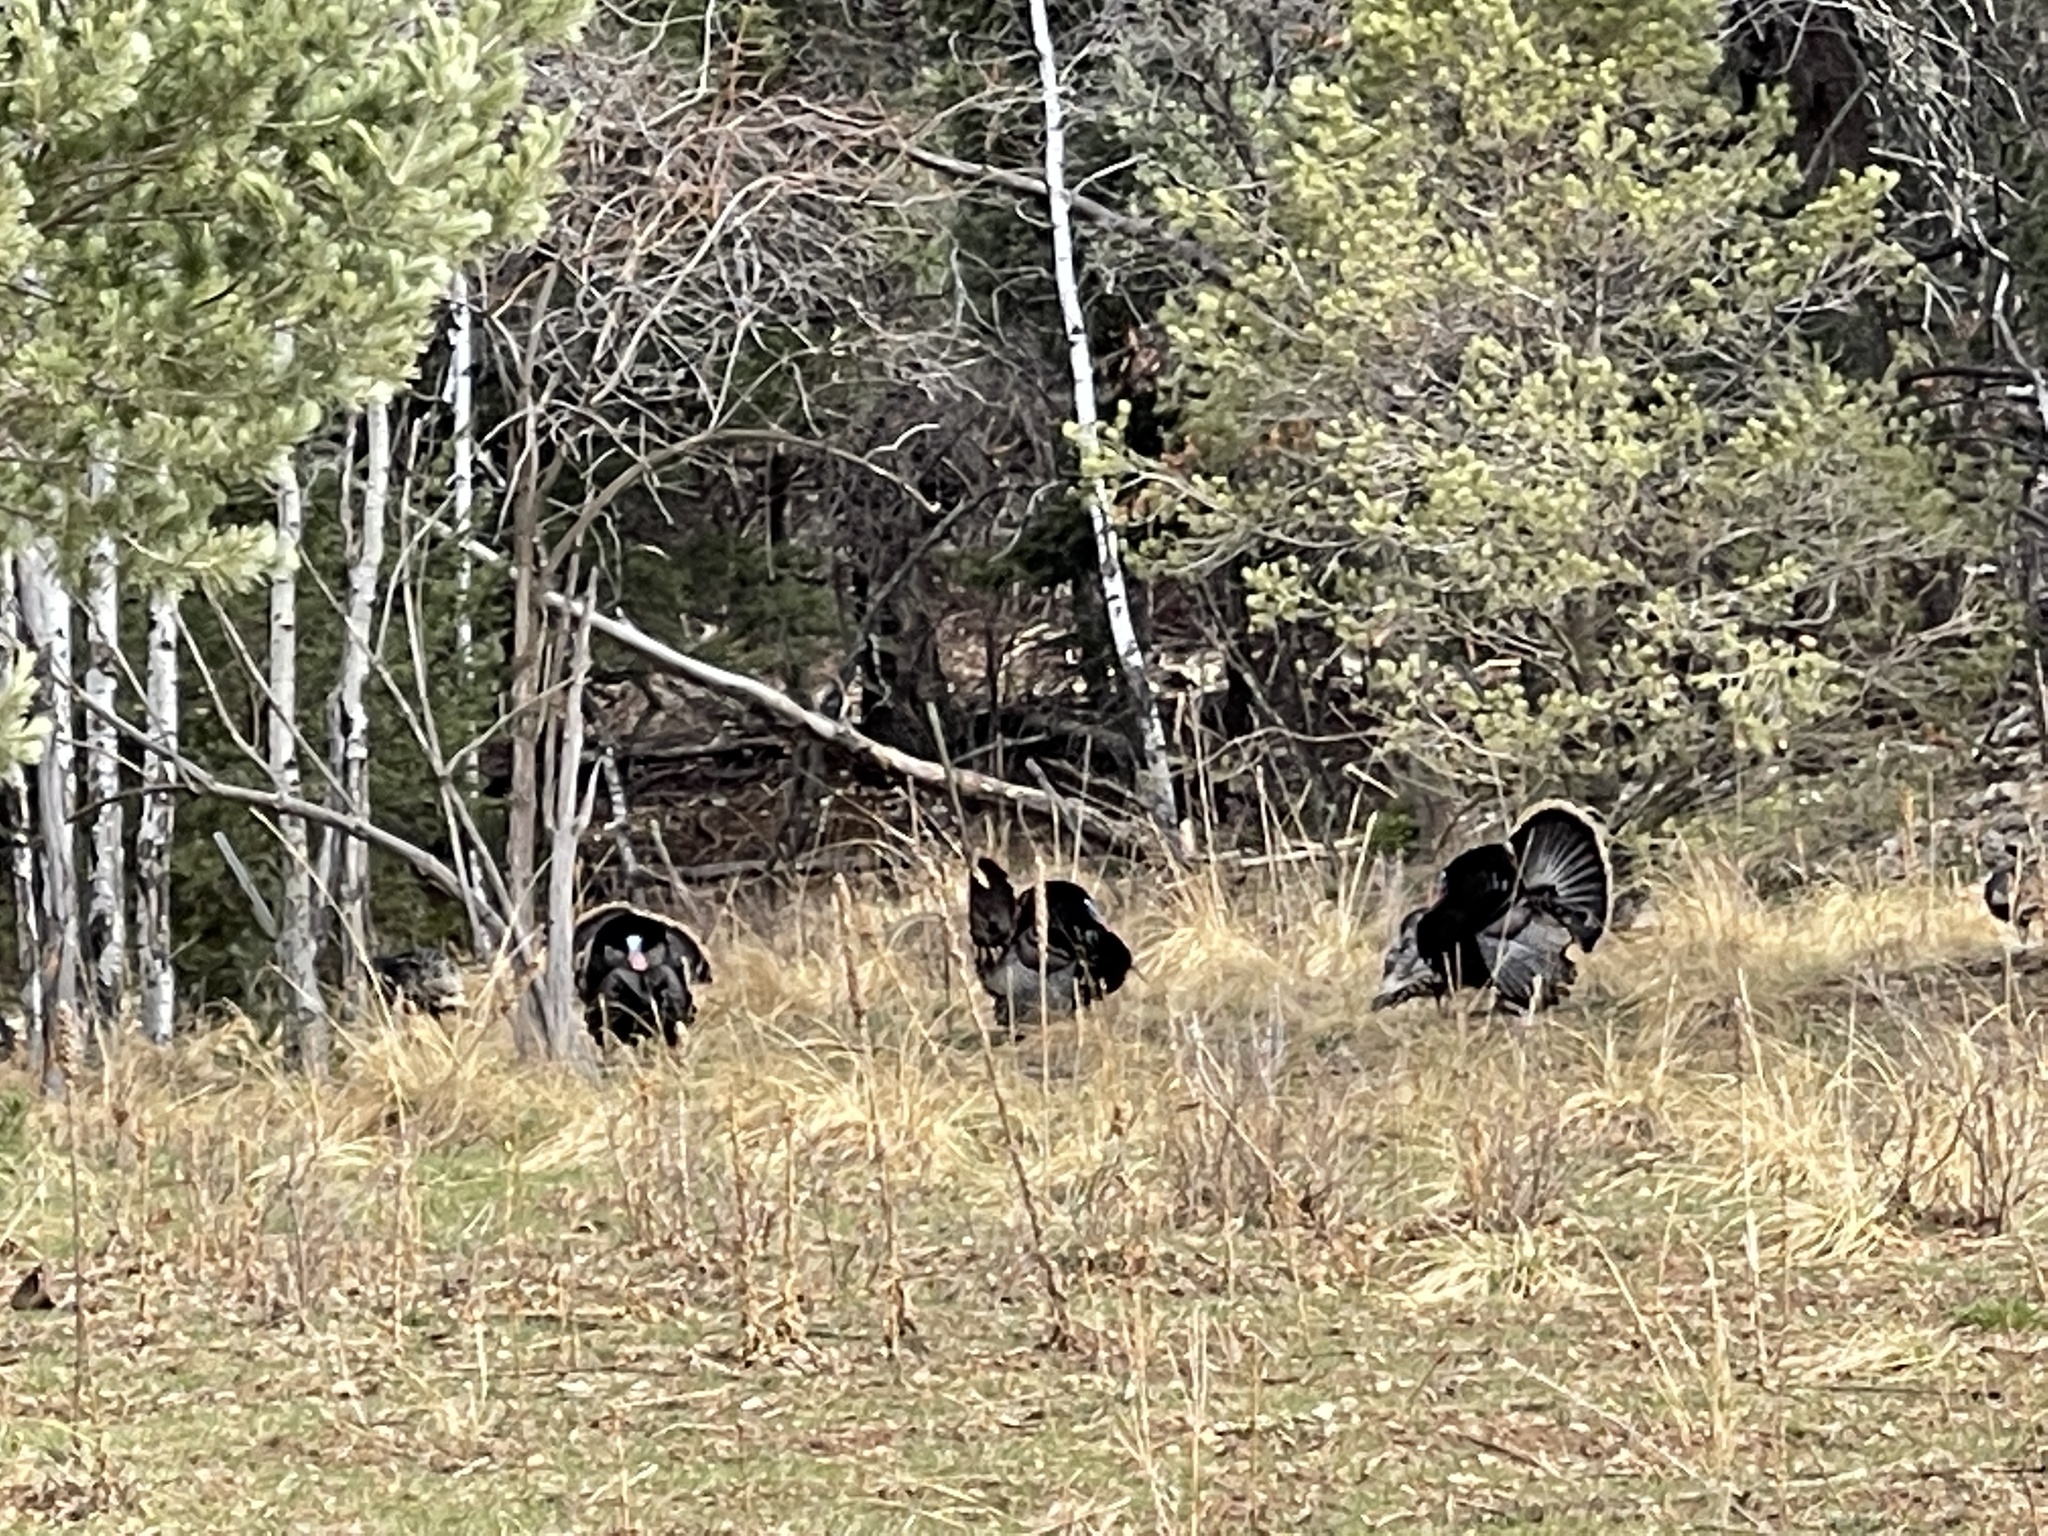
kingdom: Animalia
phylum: Chordata
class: Aves
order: Galliformes
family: Phasianidae
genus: Meleagris
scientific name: Meleagris gallopavo
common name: Wild turkey
